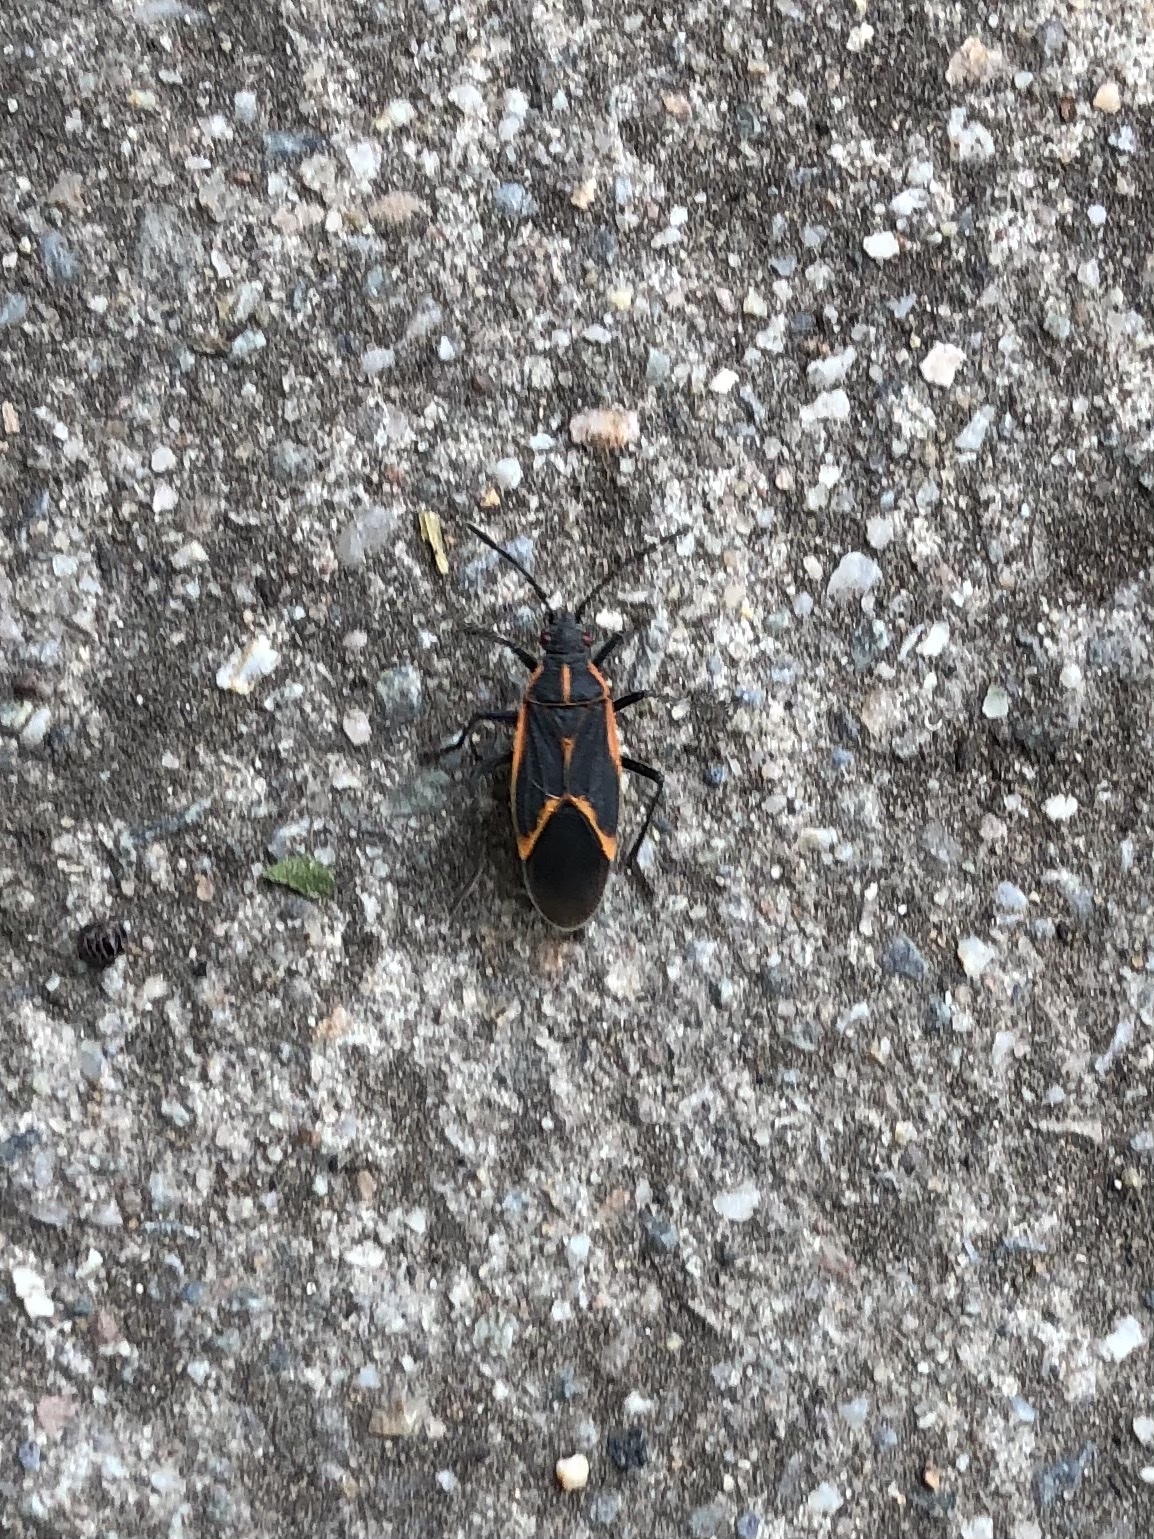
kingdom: Animalia
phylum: Arthropoda
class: Insecta
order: Hemiptera
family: Rhopalidae
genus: Boisea
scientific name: Boisea trivittata
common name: Boxelder bug
